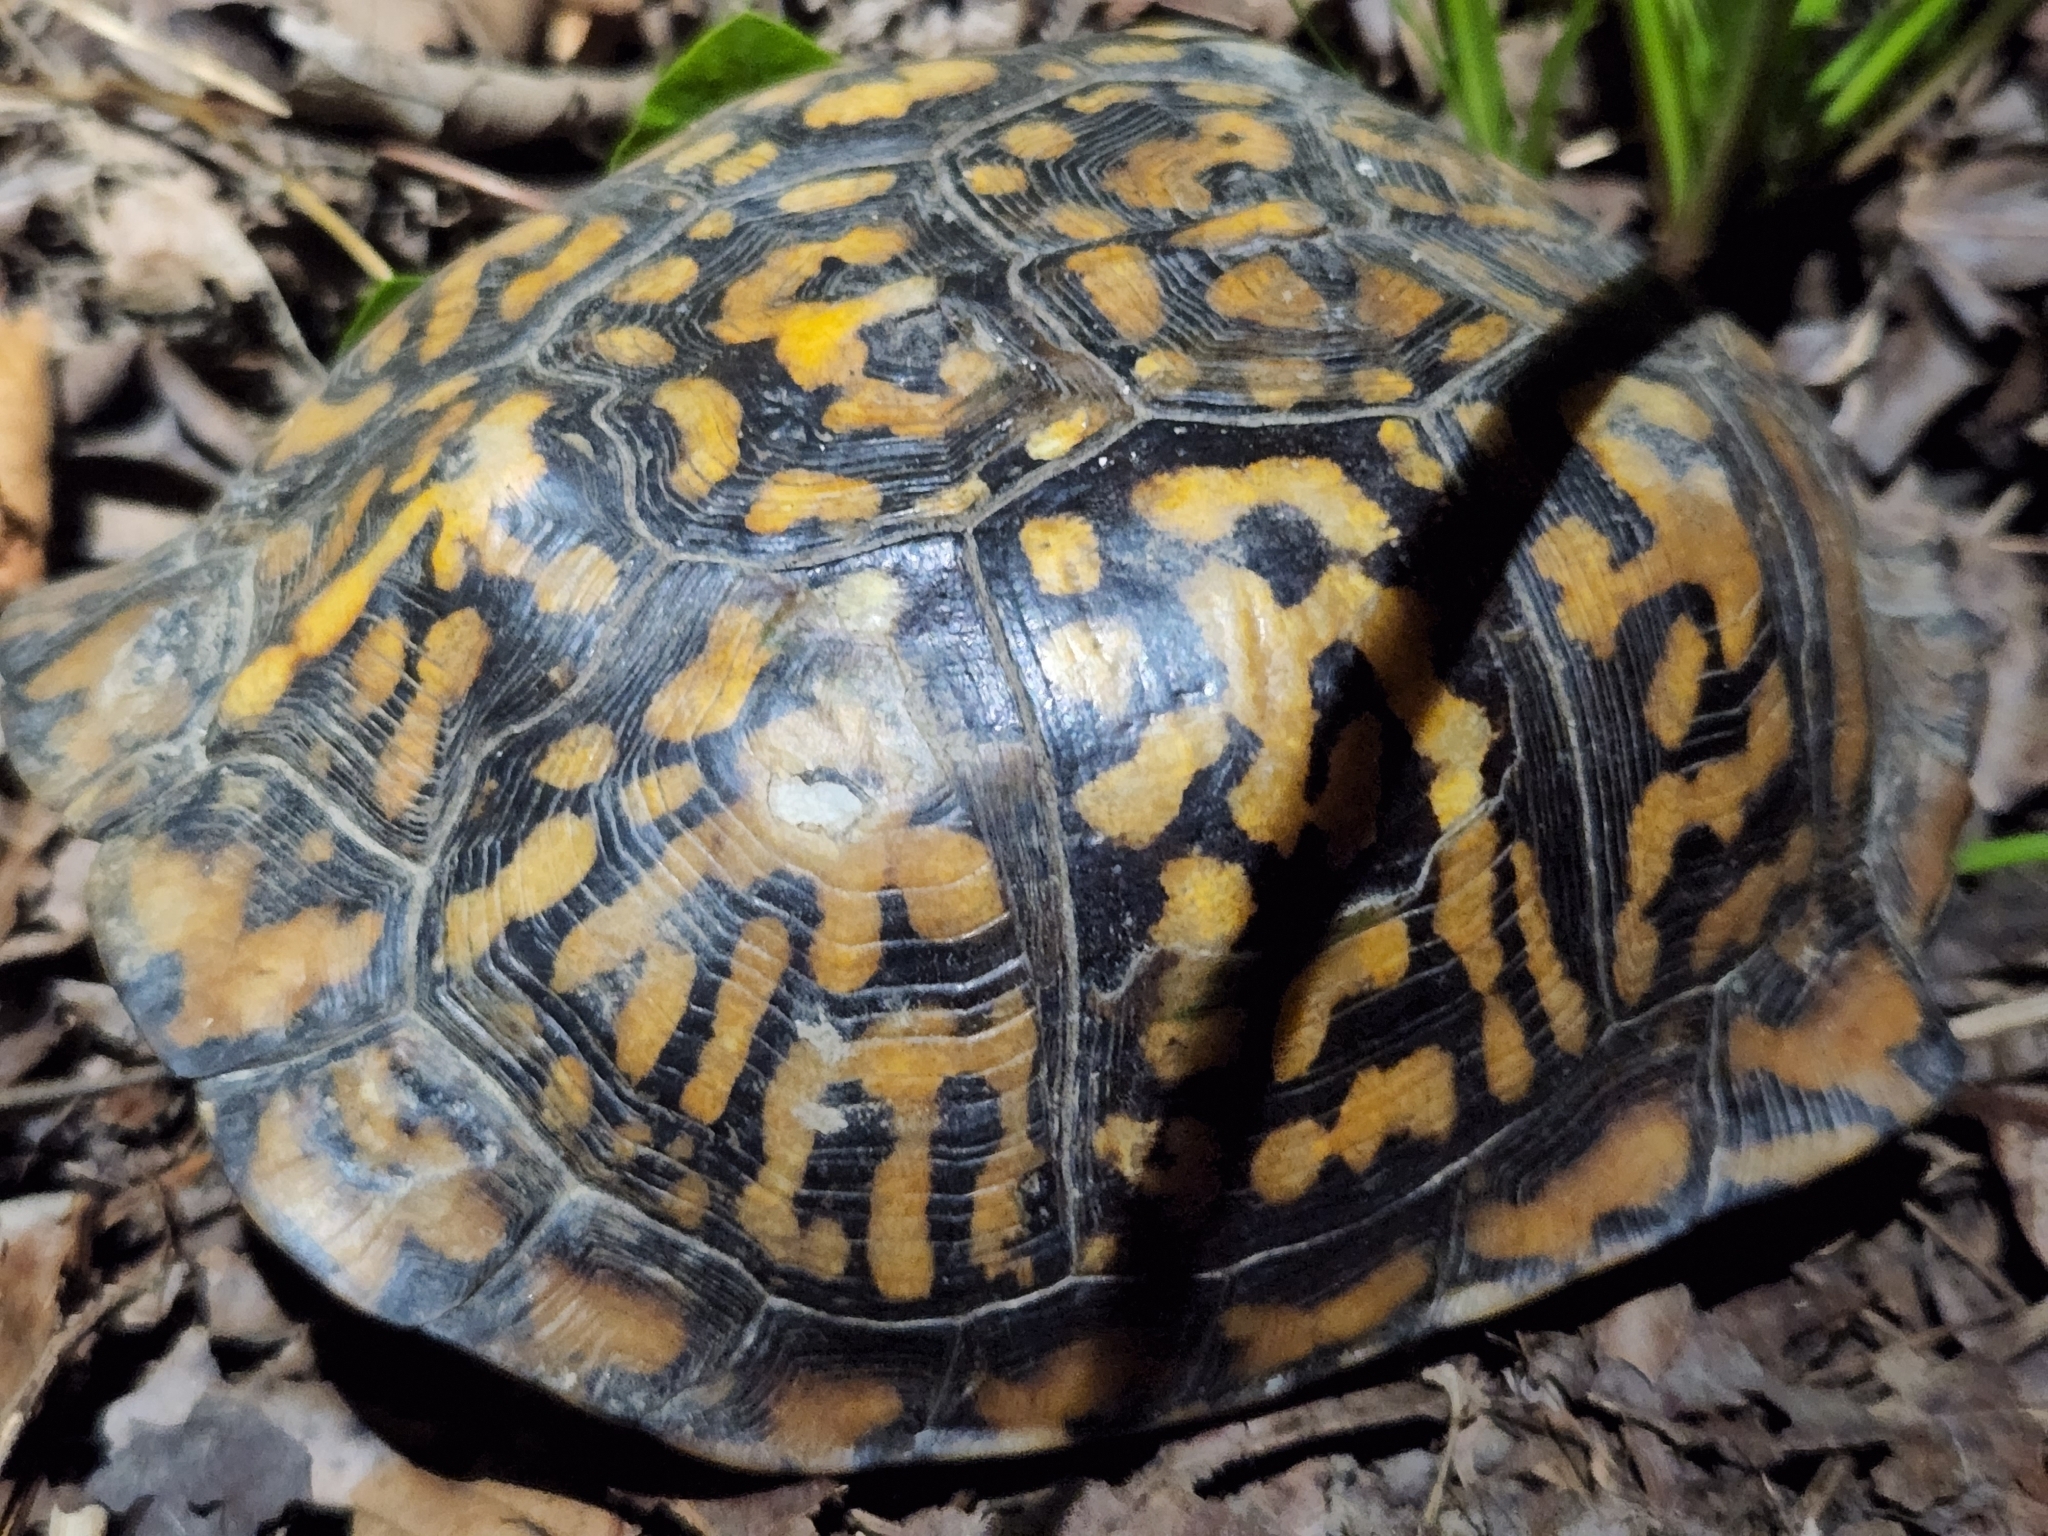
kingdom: Animalia
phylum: Chordata
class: Testudines
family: Emydidae
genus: Terrapene
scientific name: Terrapene carolina
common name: Common box turtle
